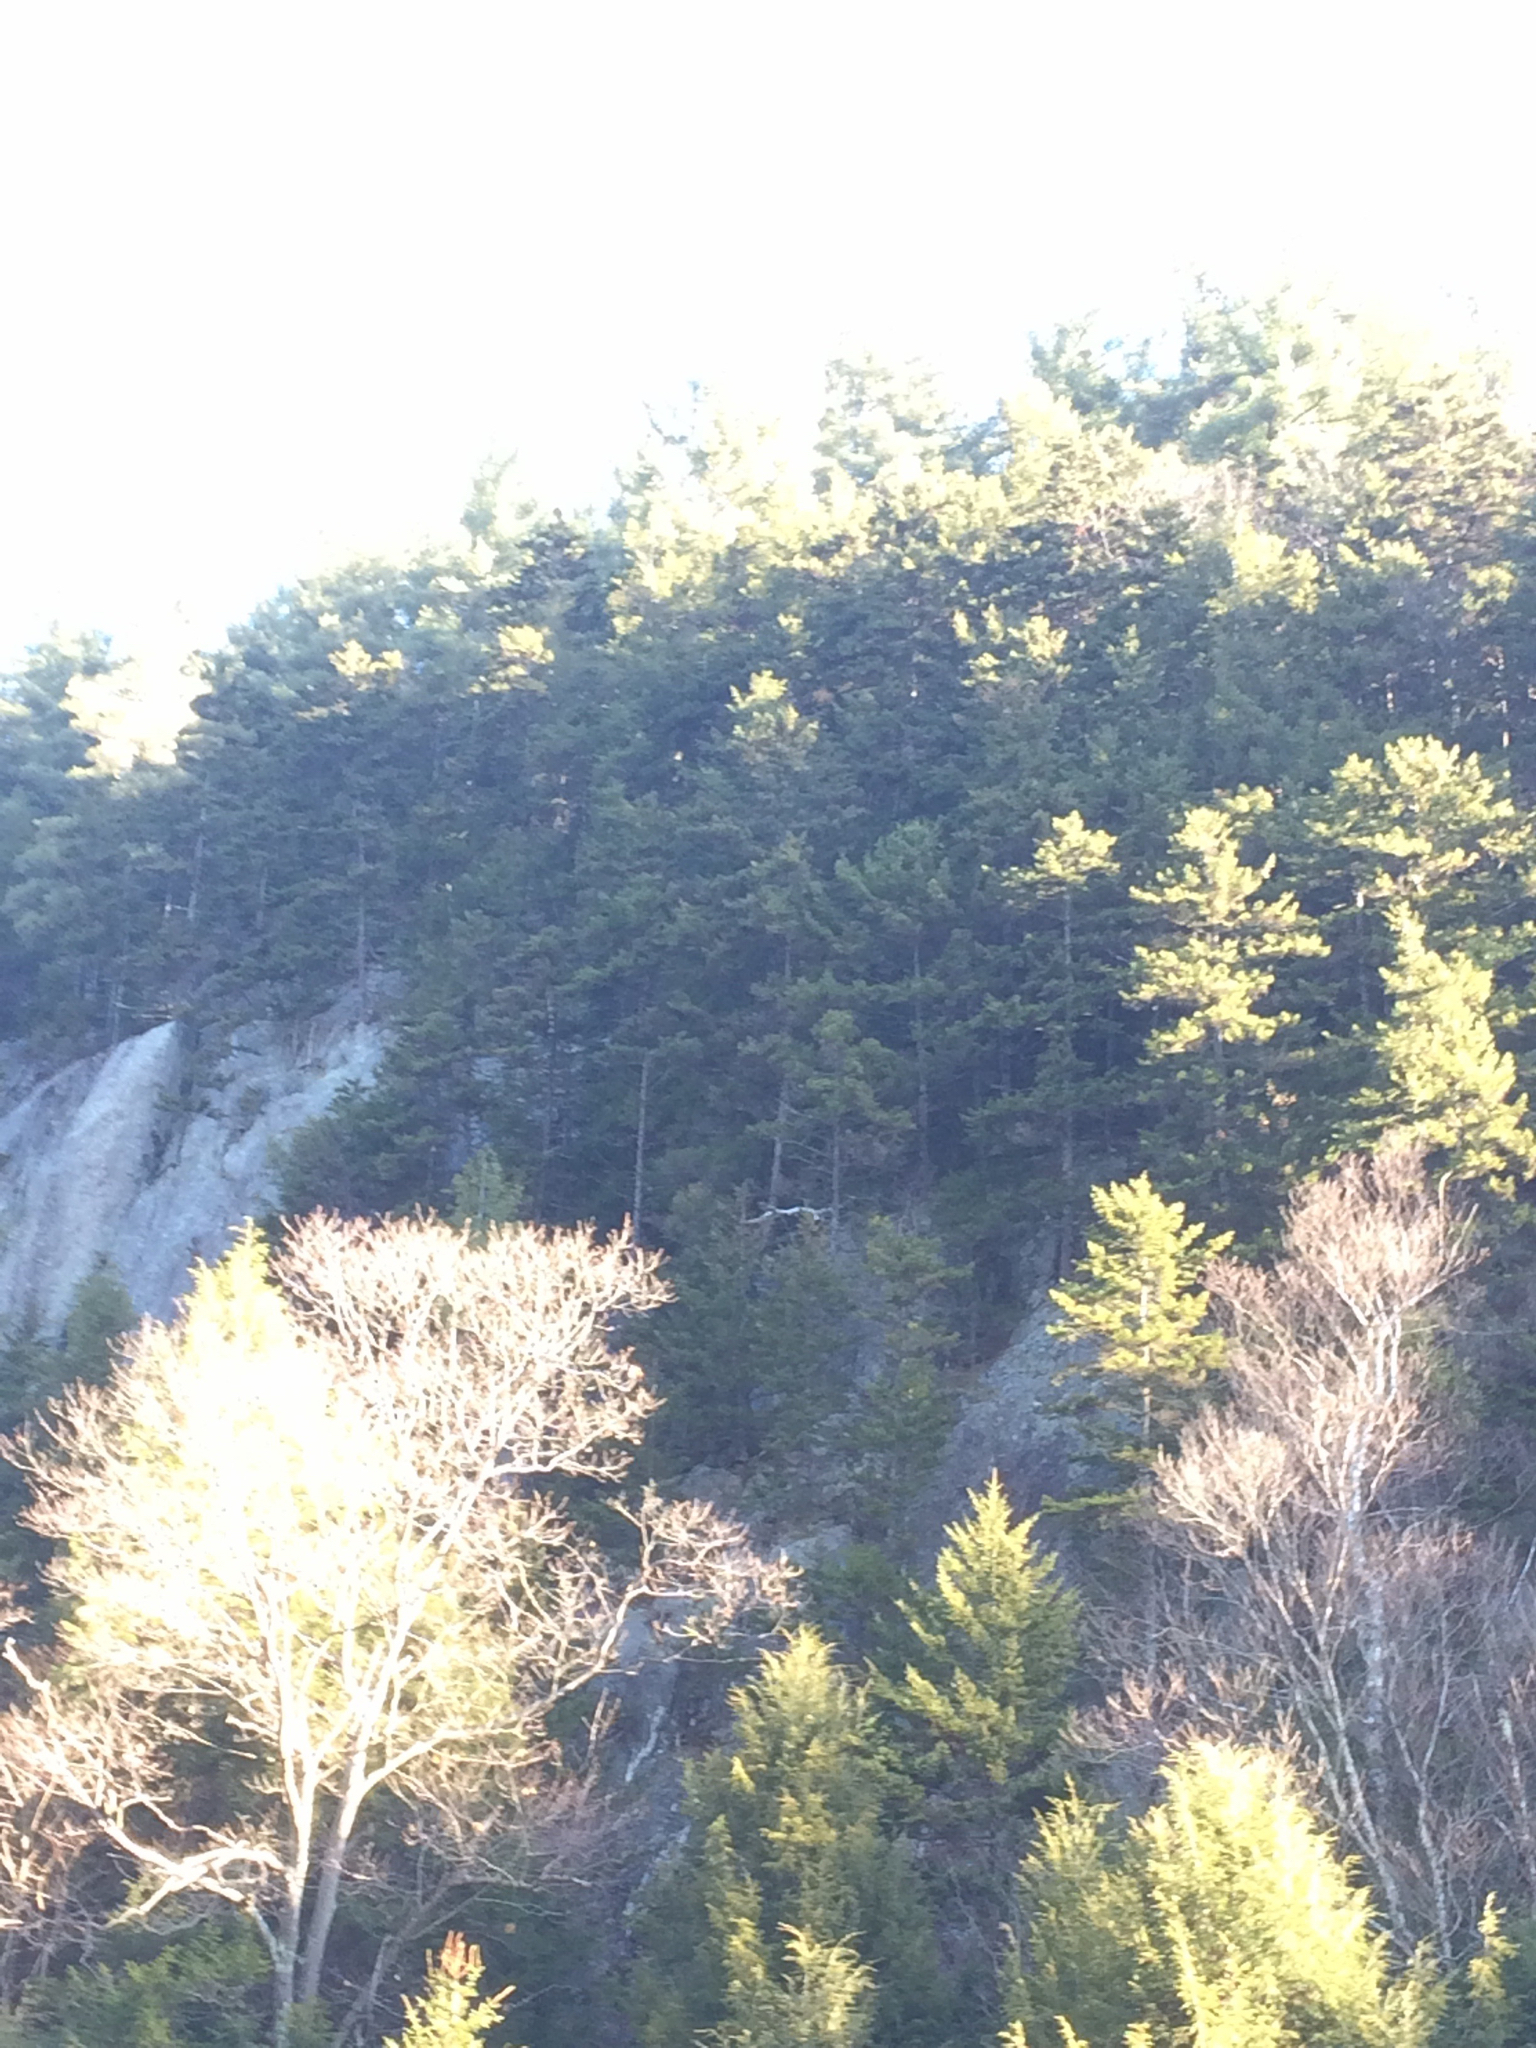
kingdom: Plantae
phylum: Tracheophyta
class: Pinopsida
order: Pinales
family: Pinaceae
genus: Picea
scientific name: Picea rubens
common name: Red spruce
